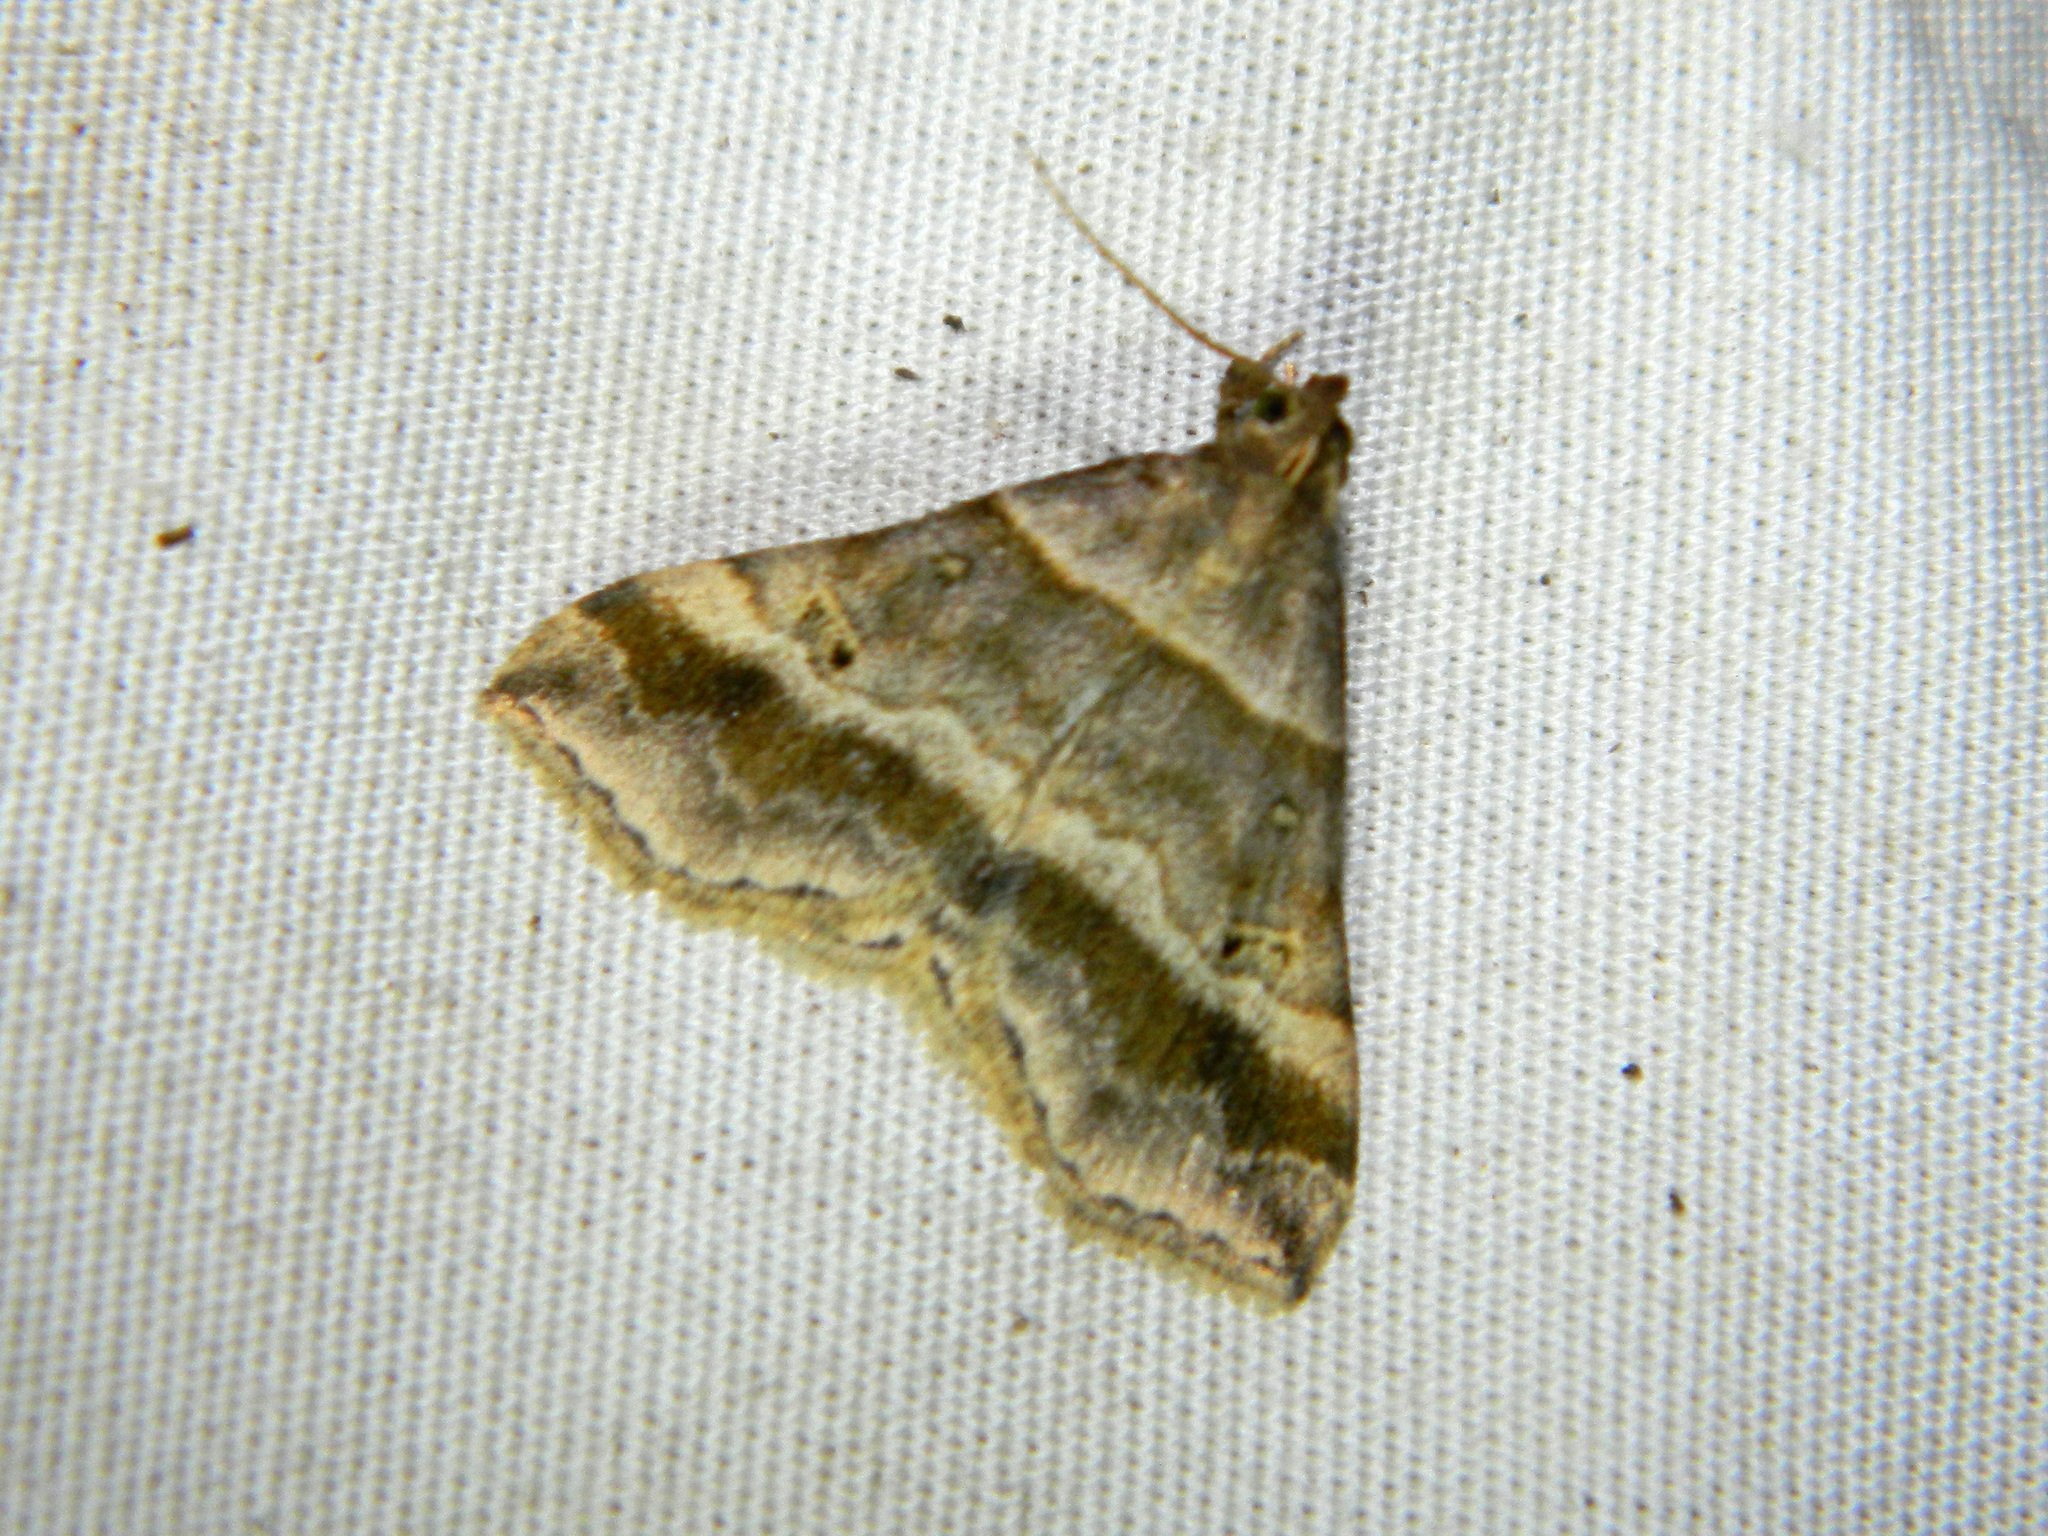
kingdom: Animalia
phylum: Arthropoda
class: Insecta
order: Lepidoptera
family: Erebidae
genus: Phaeolita
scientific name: Phaeolita pyramusalis
